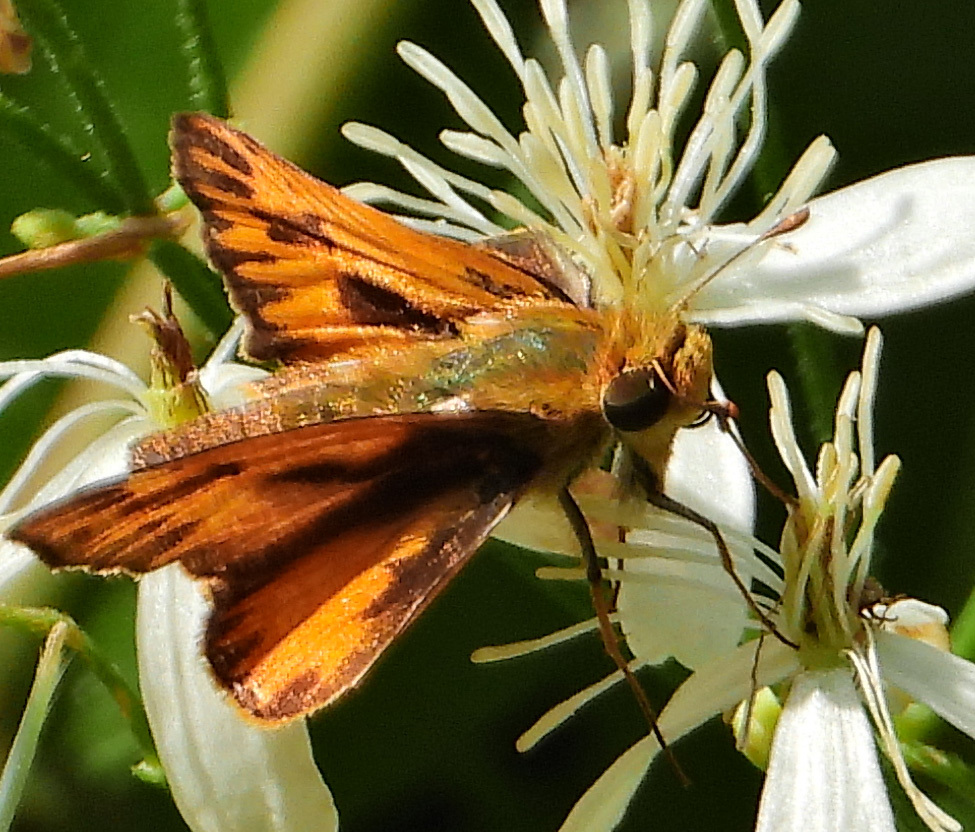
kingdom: Animalia
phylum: Arthropoda
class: Insecta
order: Lepidoptera
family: Hesperiidae
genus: Hylephila
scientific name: Hylephila phyleus
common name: Fiery skipper
